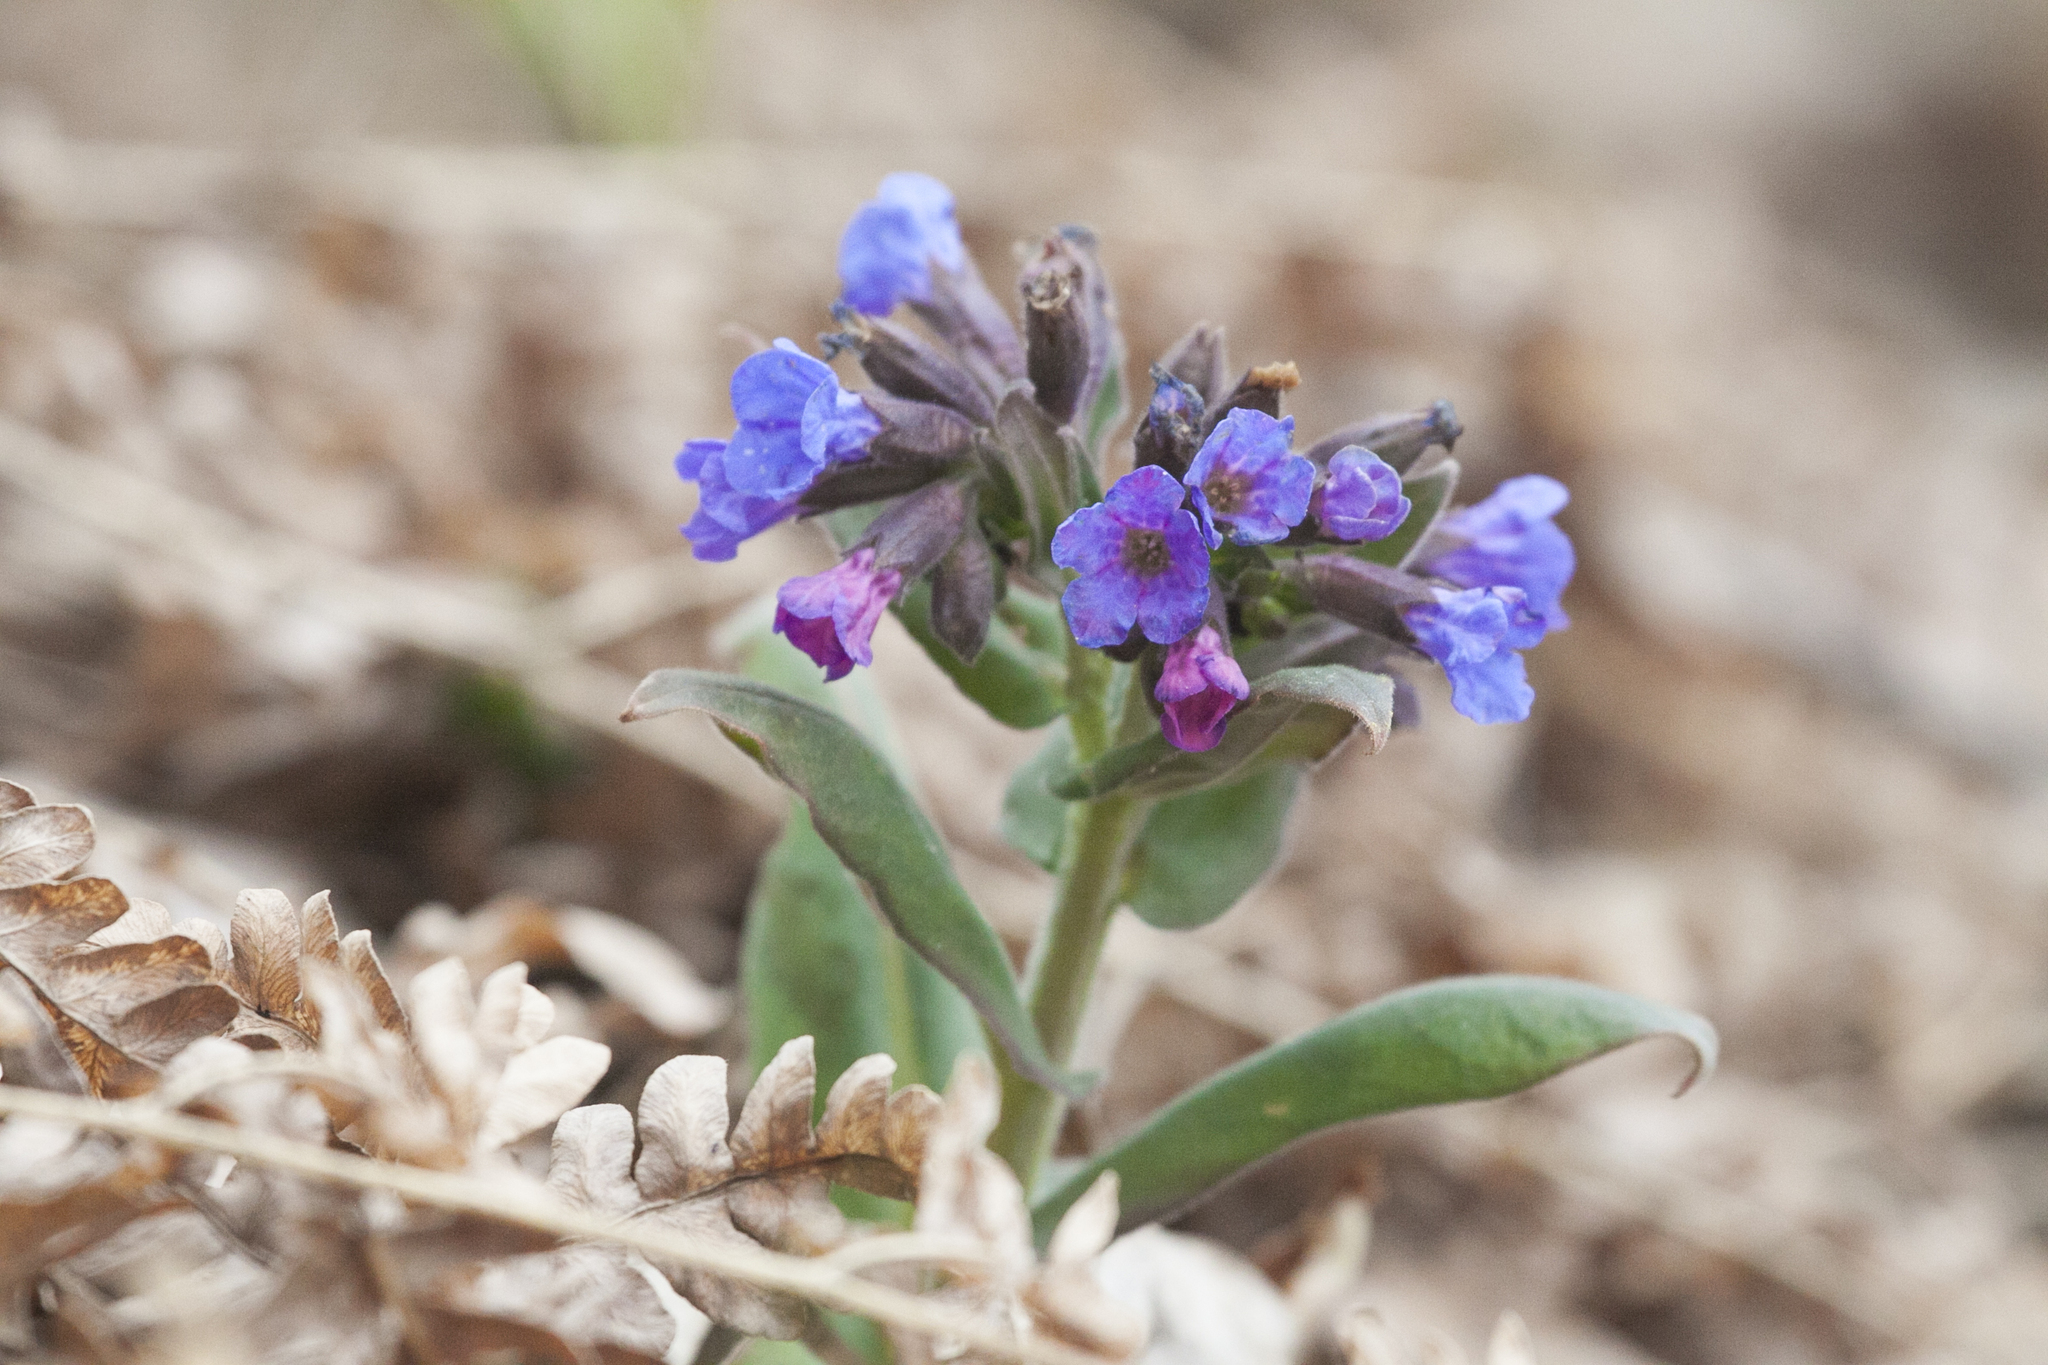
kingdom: Plantae
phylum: Tracheophyta
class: Magnoliopsida
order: Boraginales
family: Boraginaceae
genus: Pulmonaria
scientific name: Pulmonaria mollis
